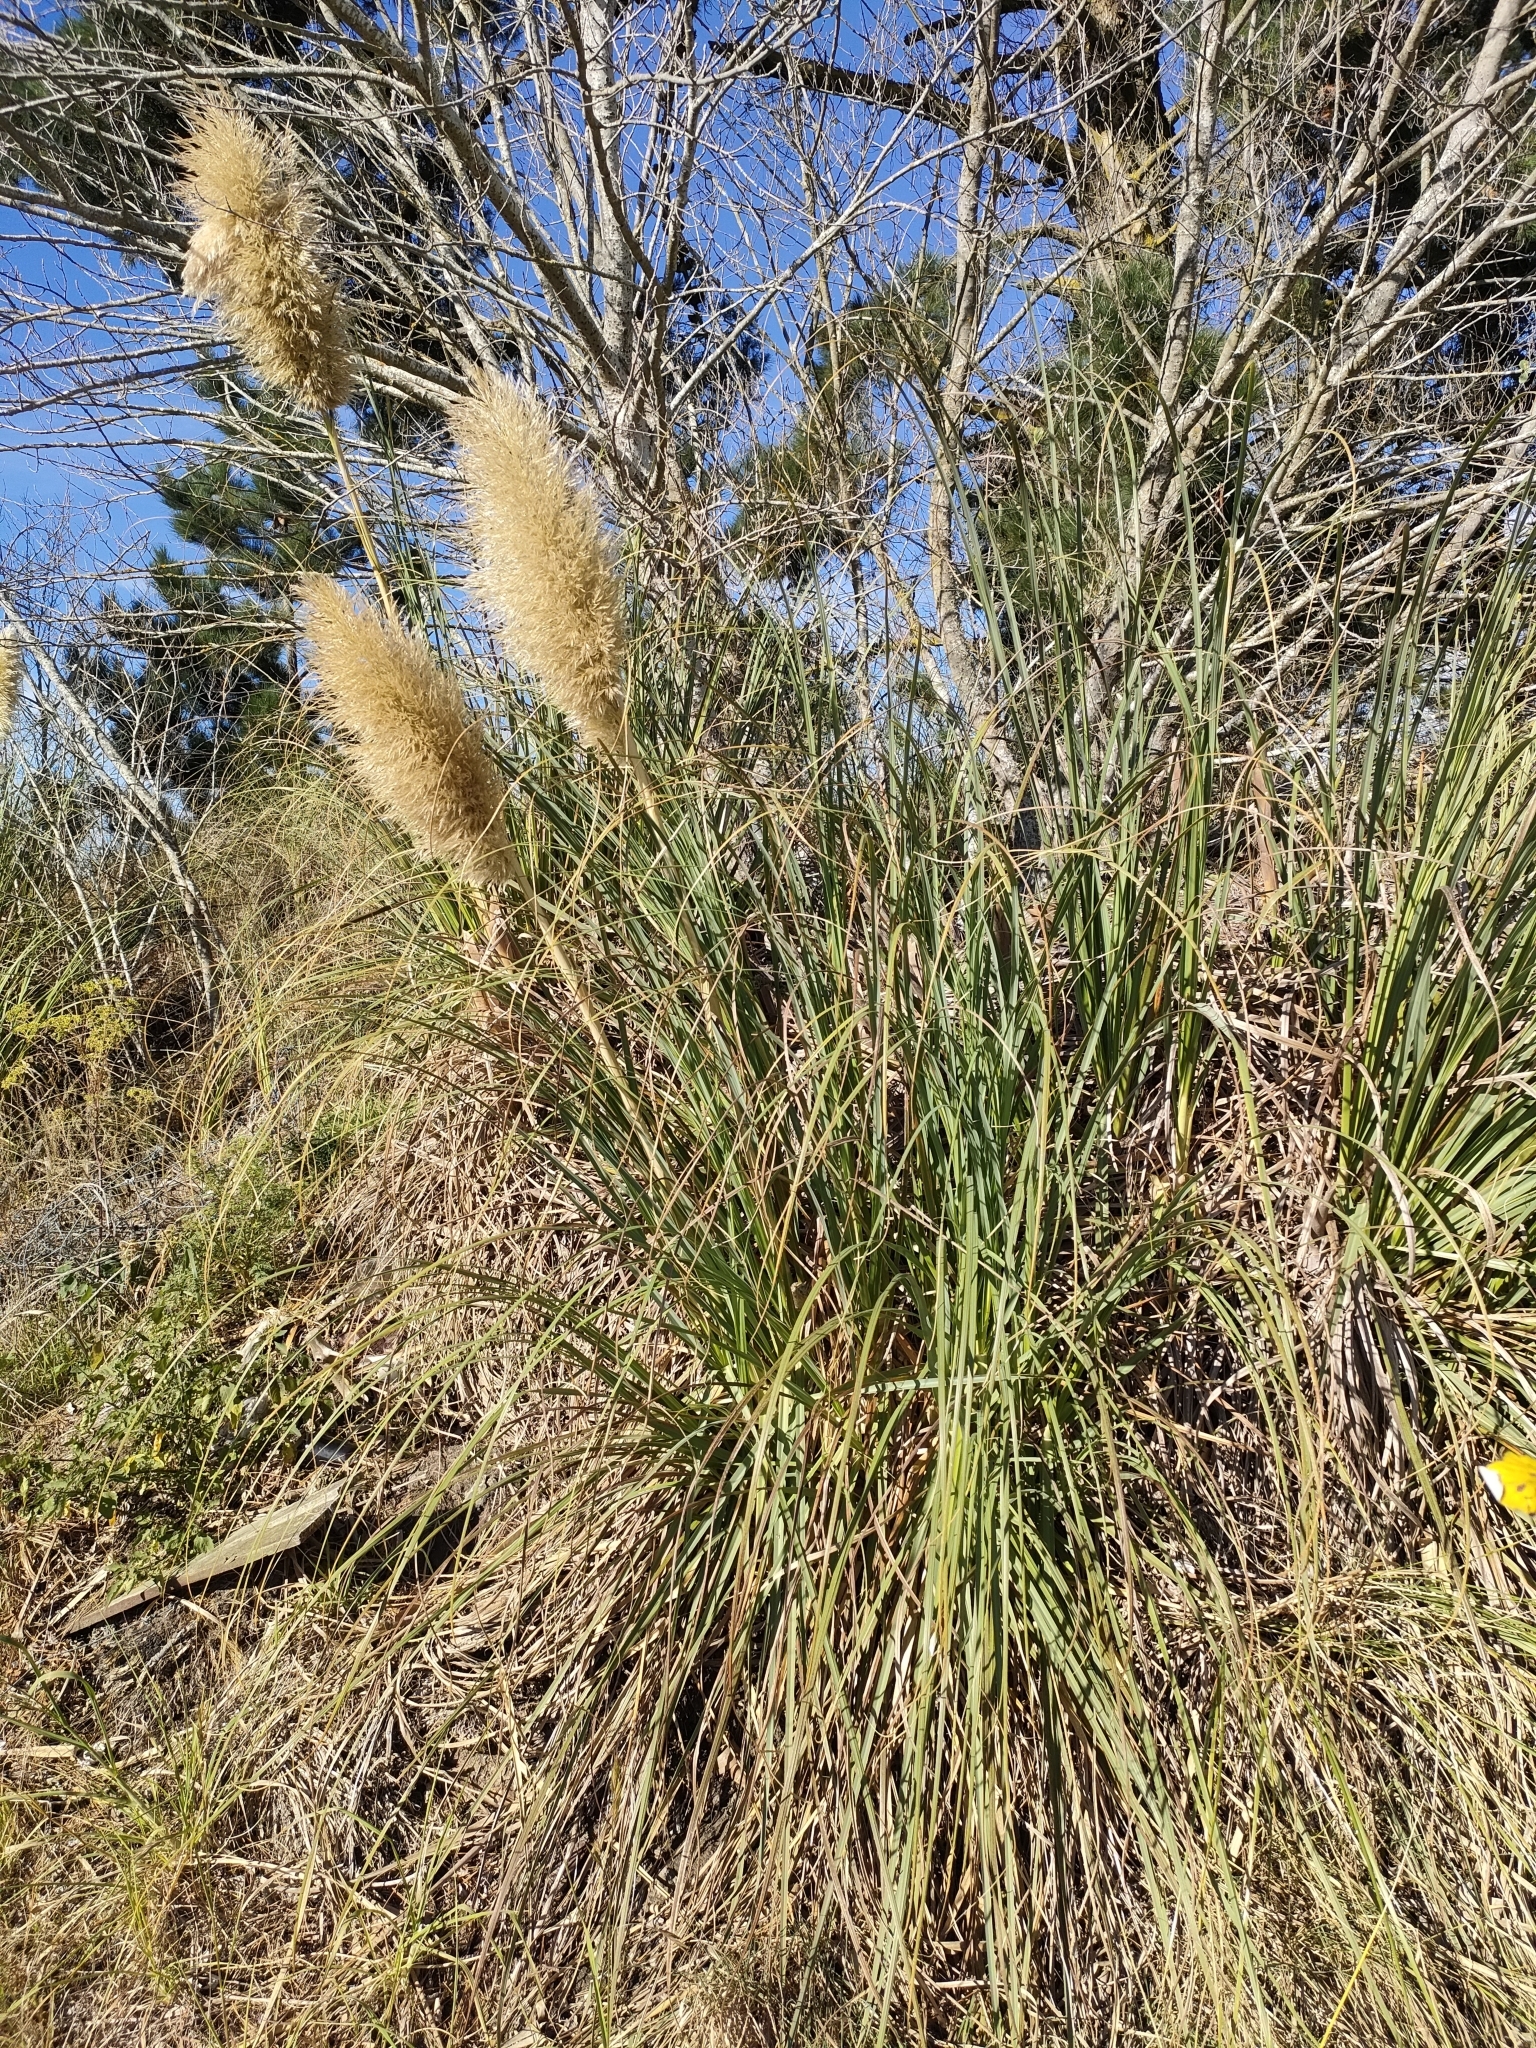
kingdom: Plantae
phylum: Tracheophyta
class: Liliopsida
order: Poales
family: Poaceae
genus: Cortaderia
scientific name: Cortaderia selloana
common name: Uruguayan pampas grass
